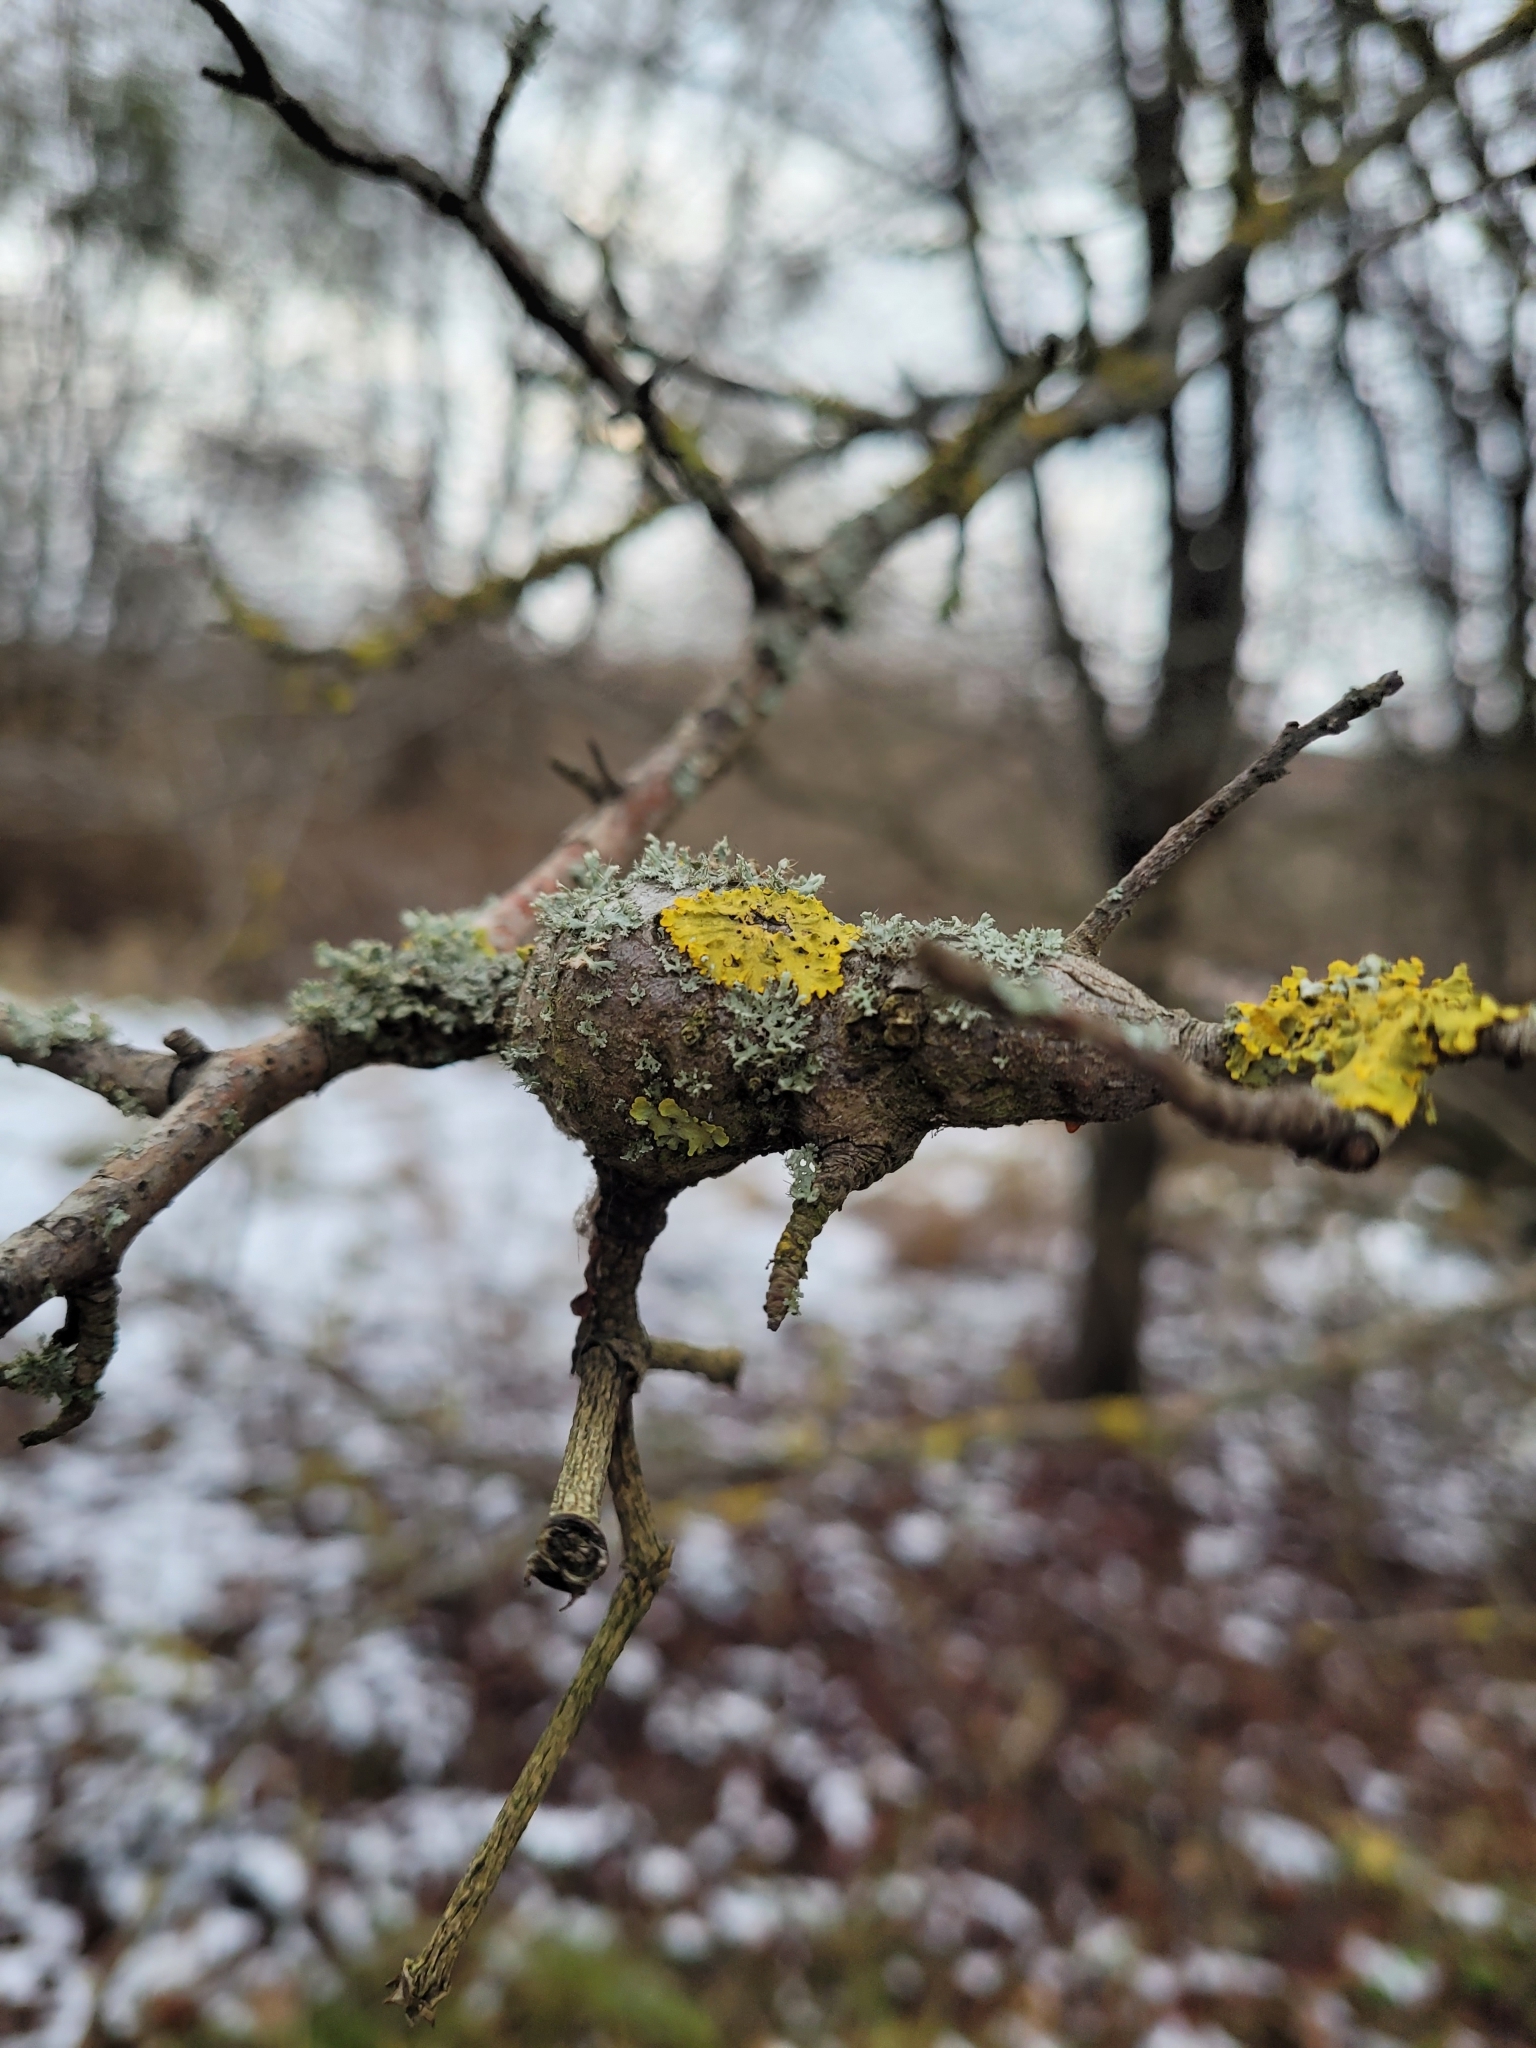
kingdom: Fungi
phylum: Ascomycota
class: Lecanoromycetes
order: Teloschistales
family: Teloschistaceae
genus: Xanthoria
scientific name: Xanthoria parietina
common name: Common orange lichen
